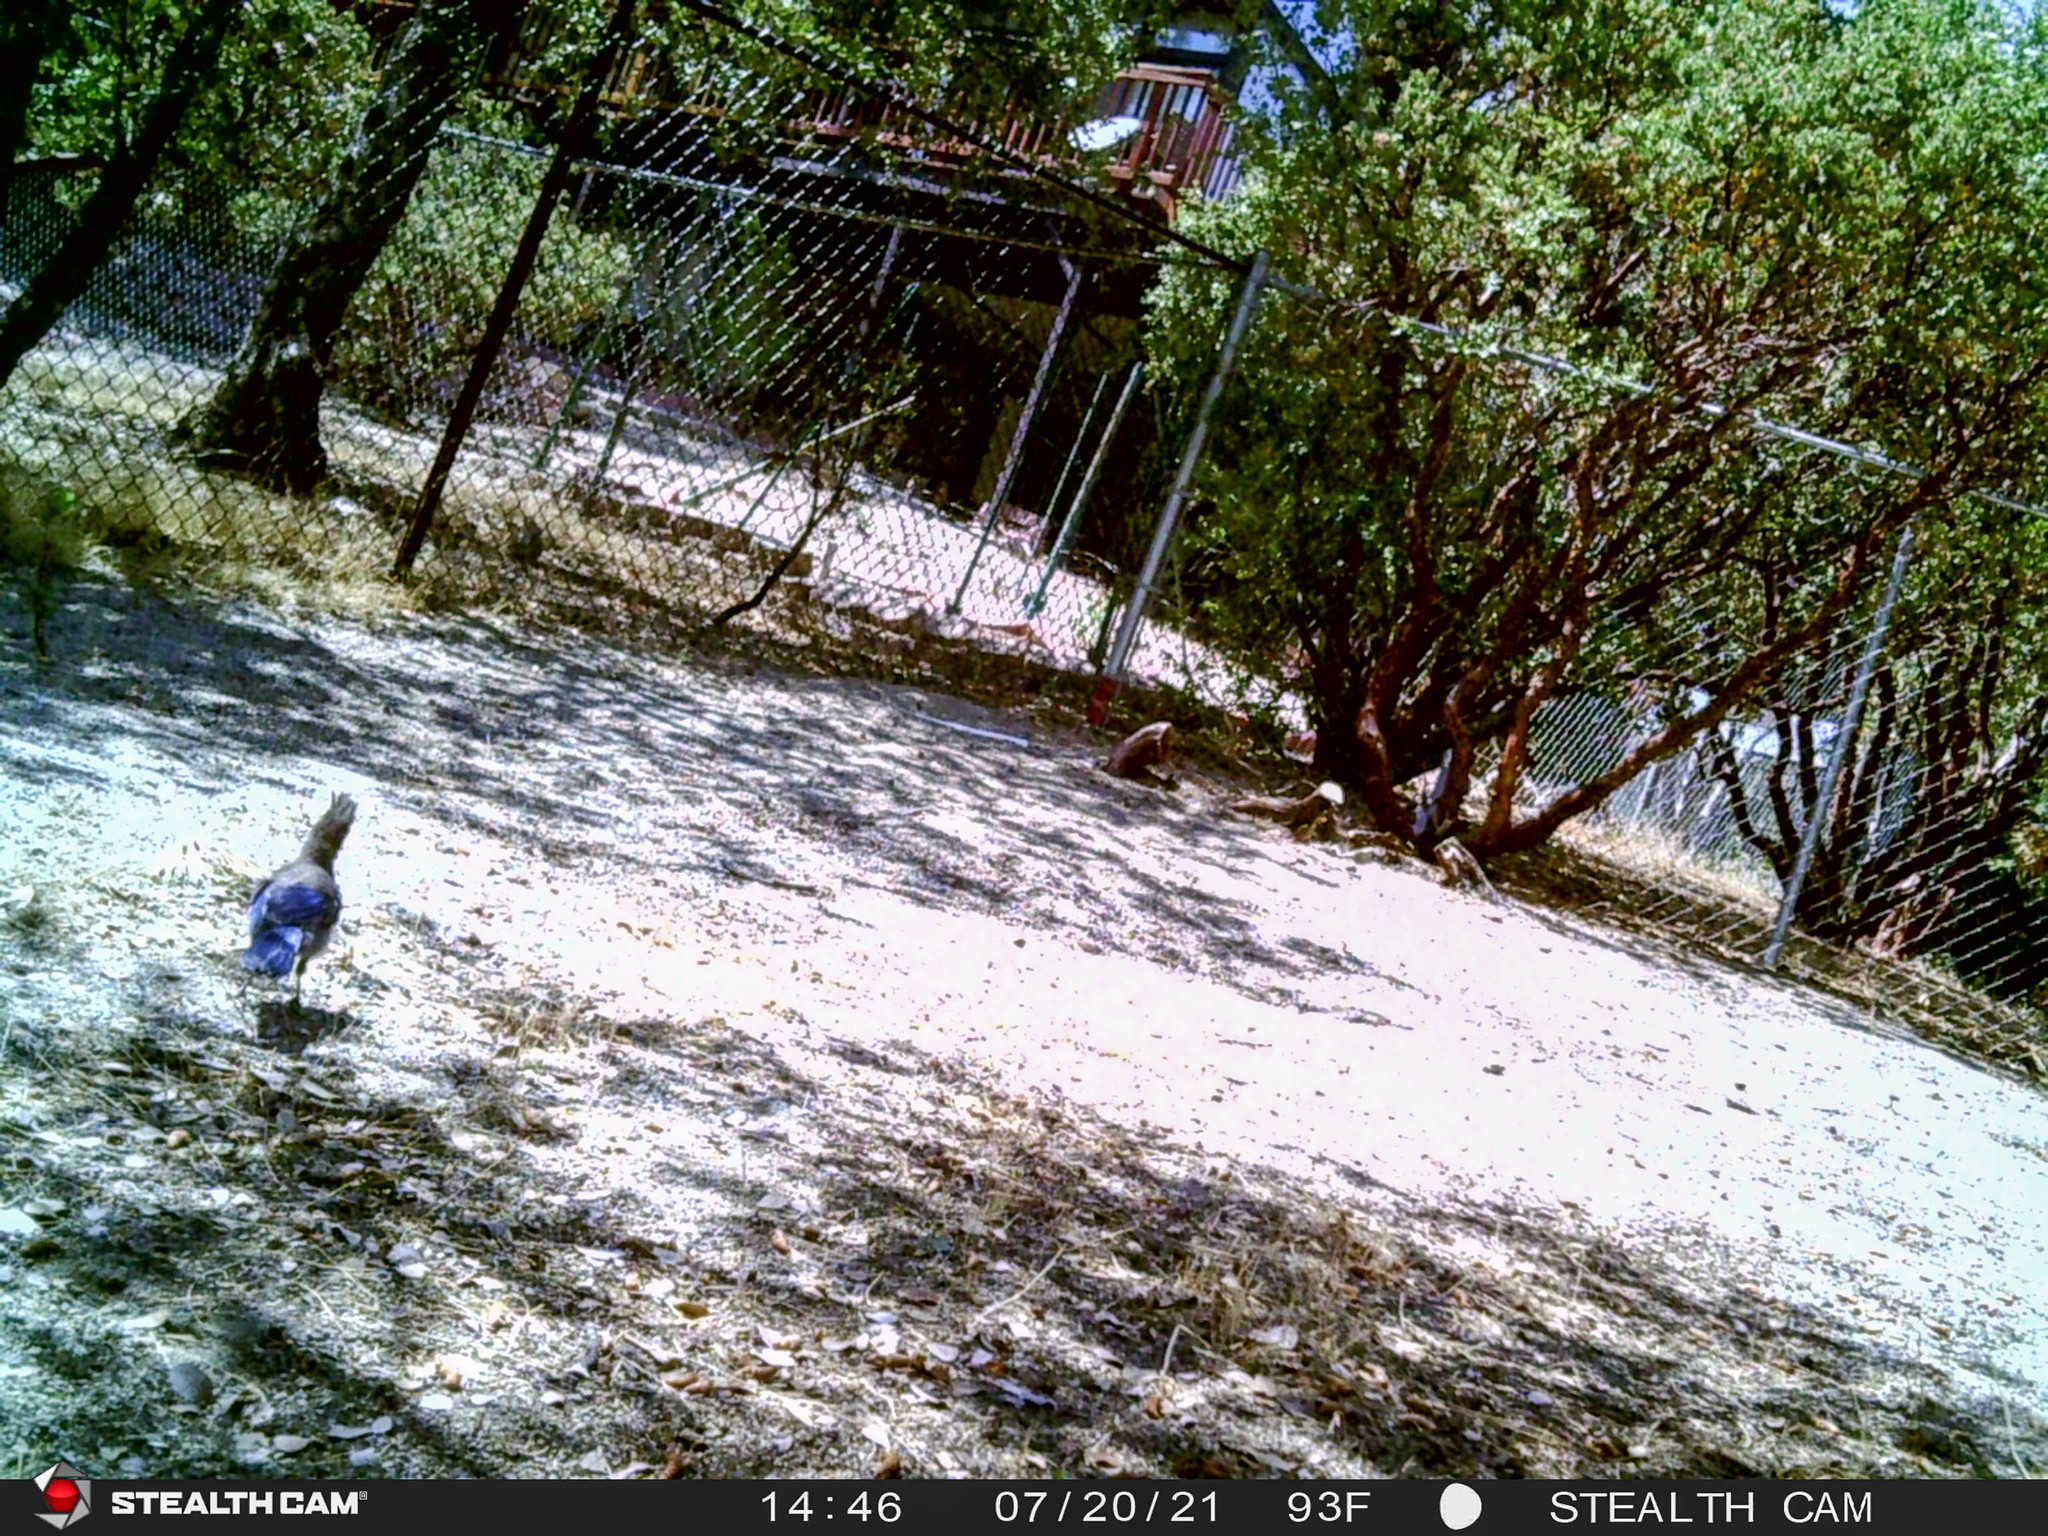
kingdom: Animalia
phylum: Chordata
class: Aves
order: Passeriformes
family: Corvidae
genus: Cyanocitta
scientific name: Cyanocitta stelleri
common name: Steller's jay
